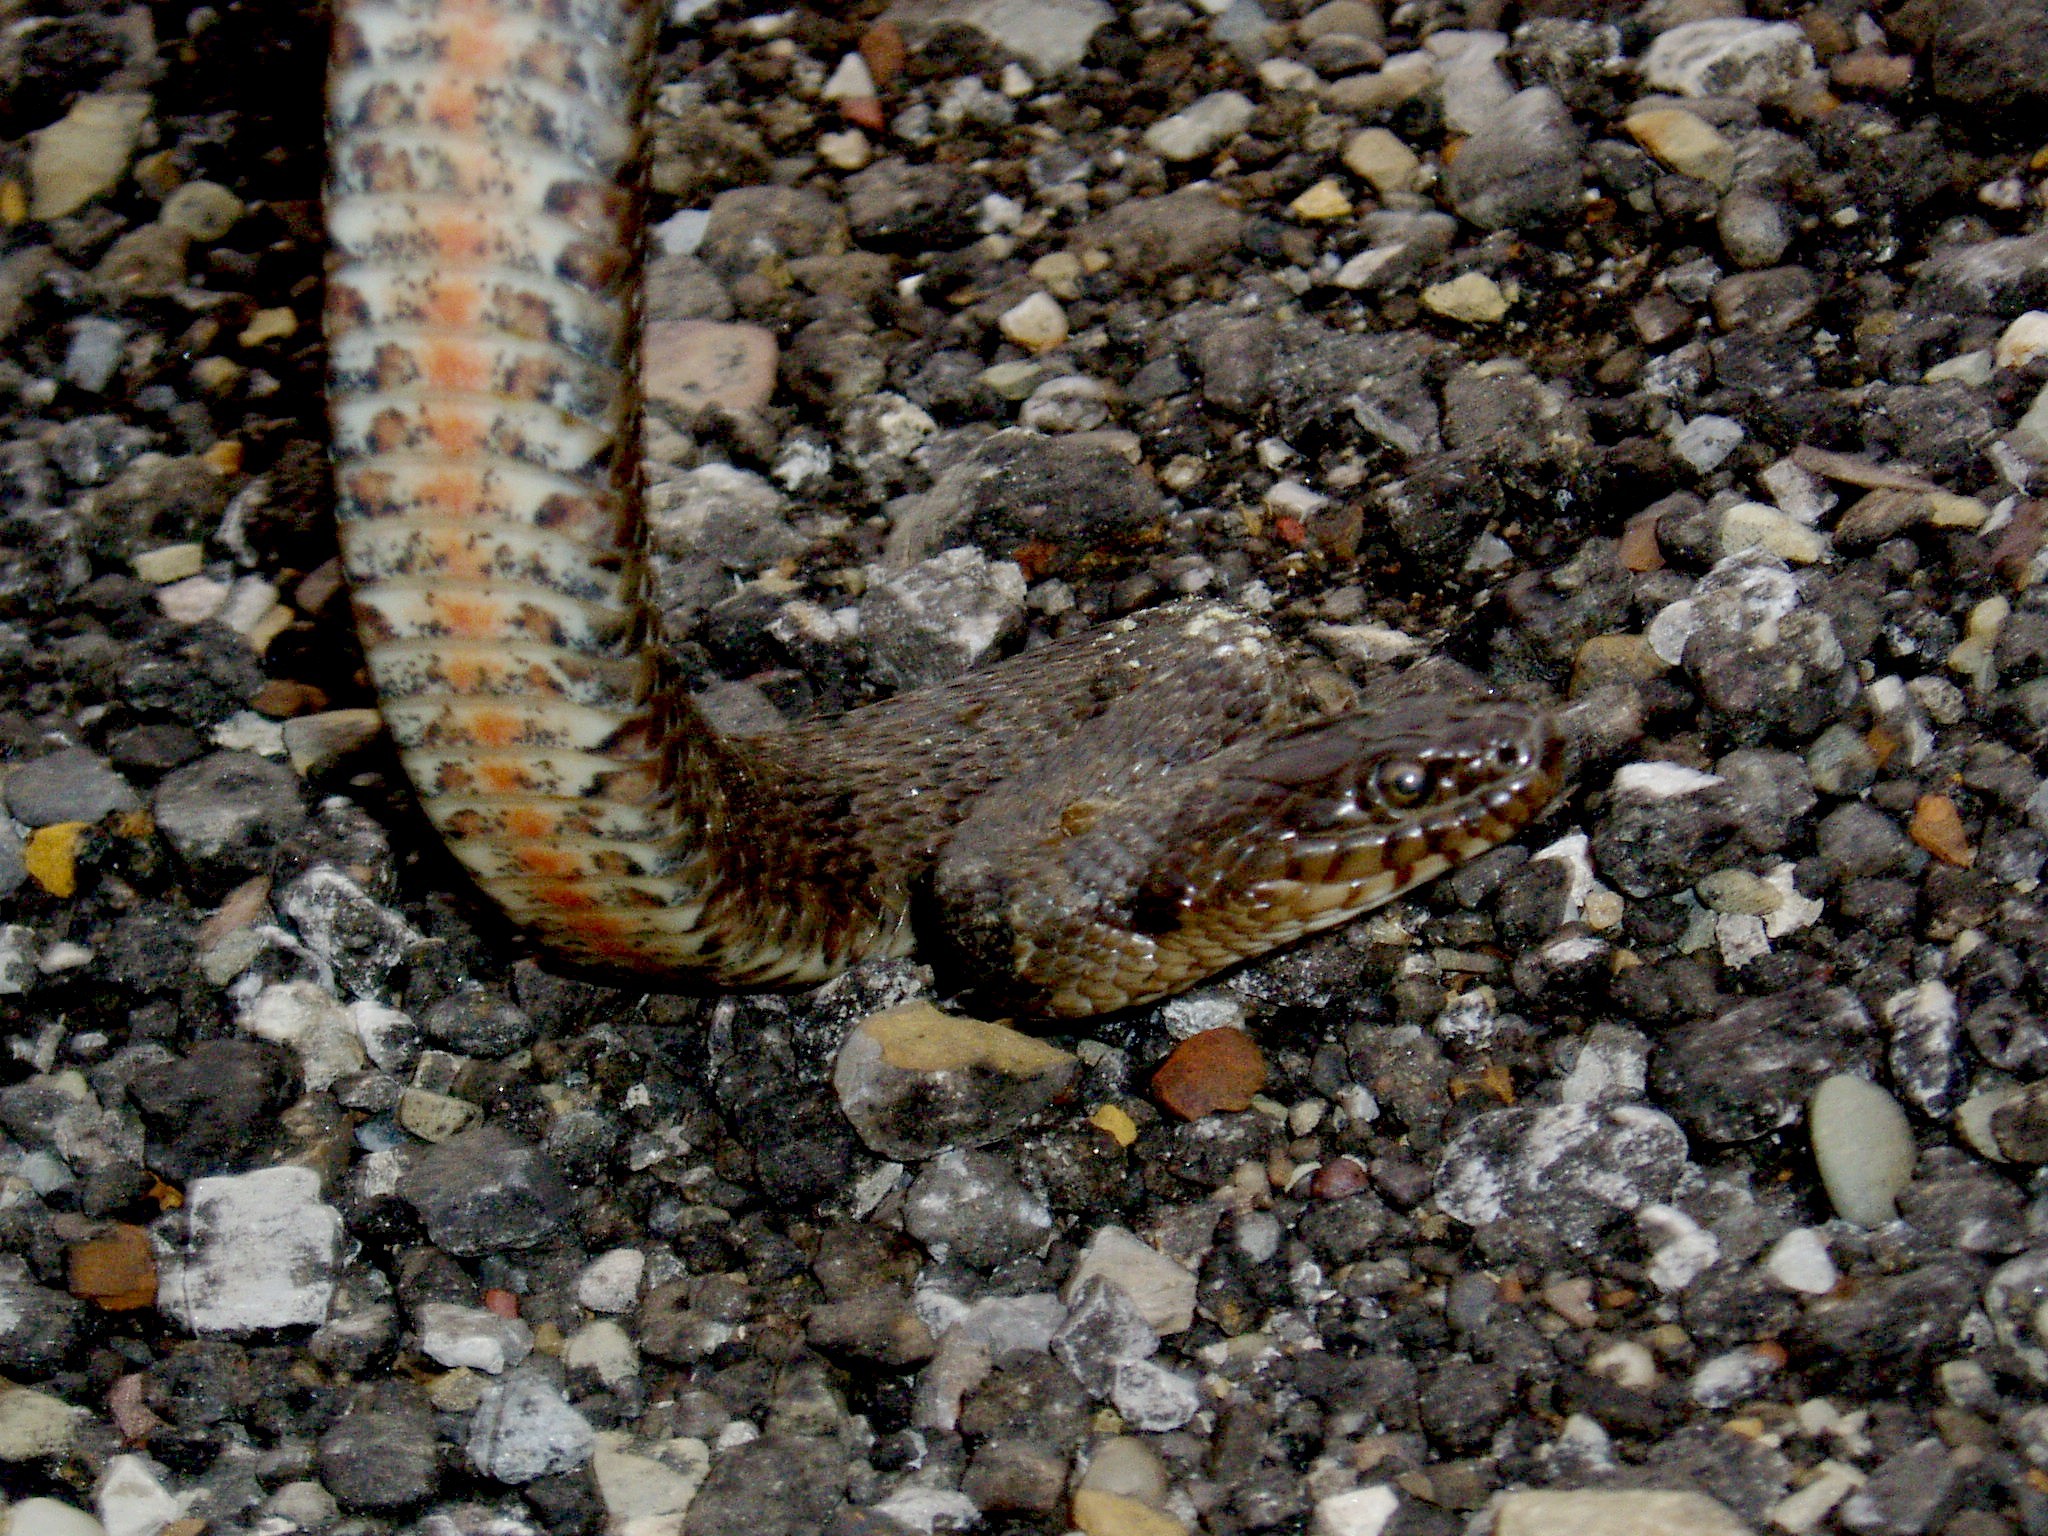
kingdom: Animalia
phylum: Chordata
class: Squamata
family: Colubridae
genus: Nerodia
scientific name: Nerodia sipedon
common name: Northern water snake
